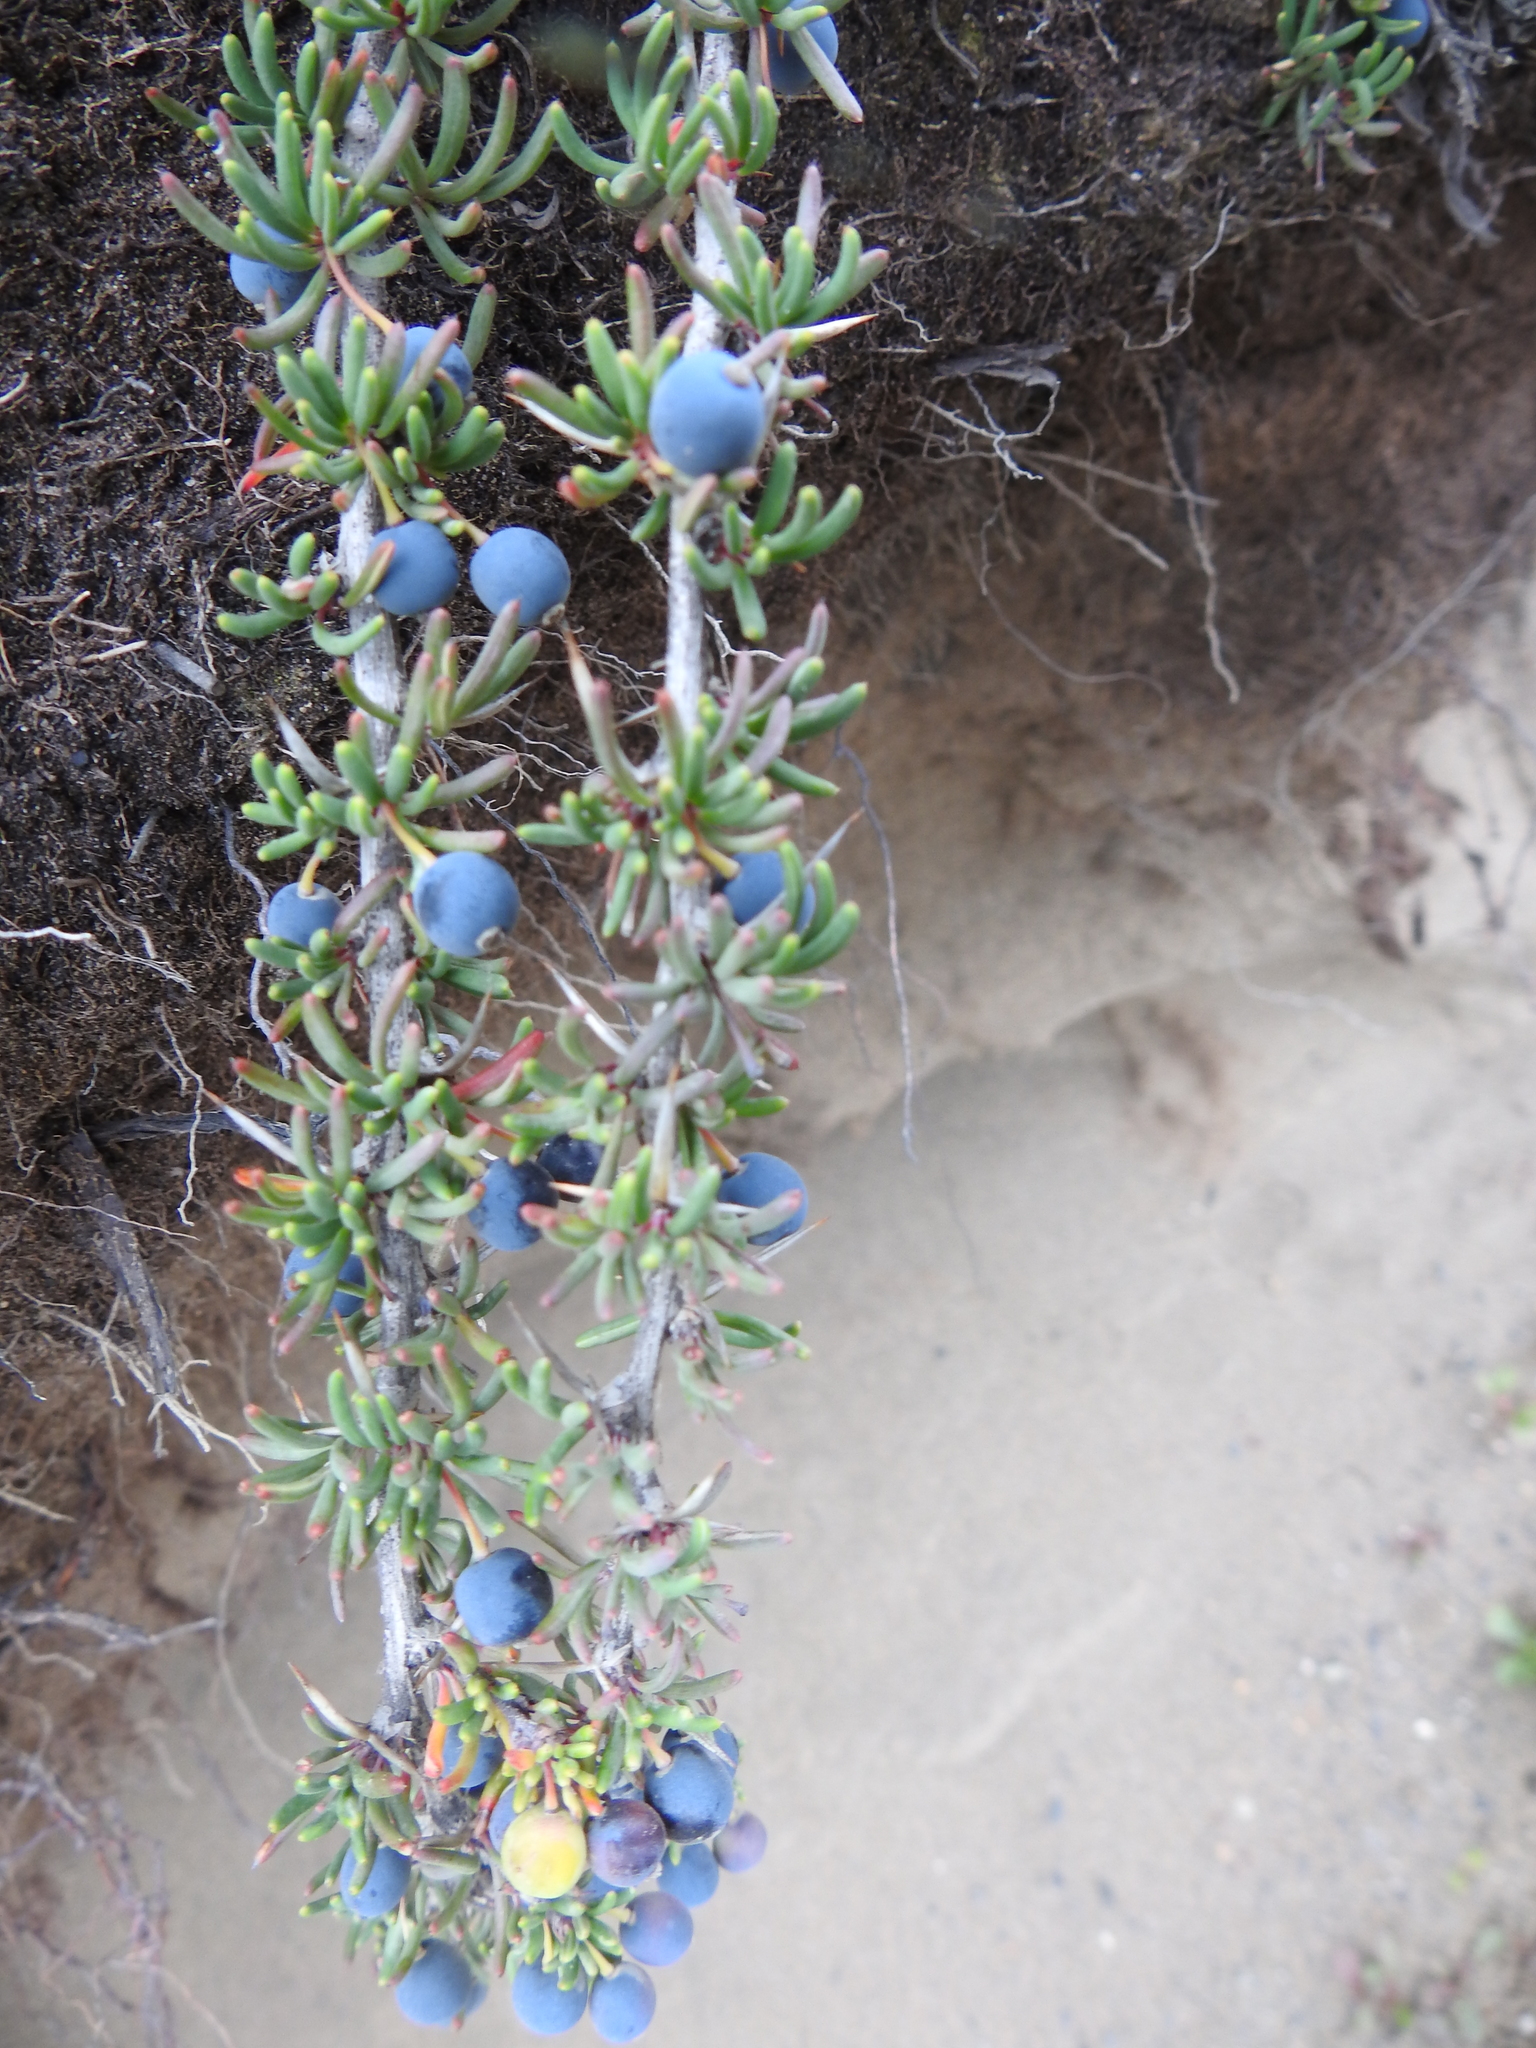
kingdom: Plantae
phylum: Tracheophyta
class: Magnoliopsida
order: Ranunculales
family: Berberidaceae
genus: Berberis
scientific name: Berberis empetrifolia
